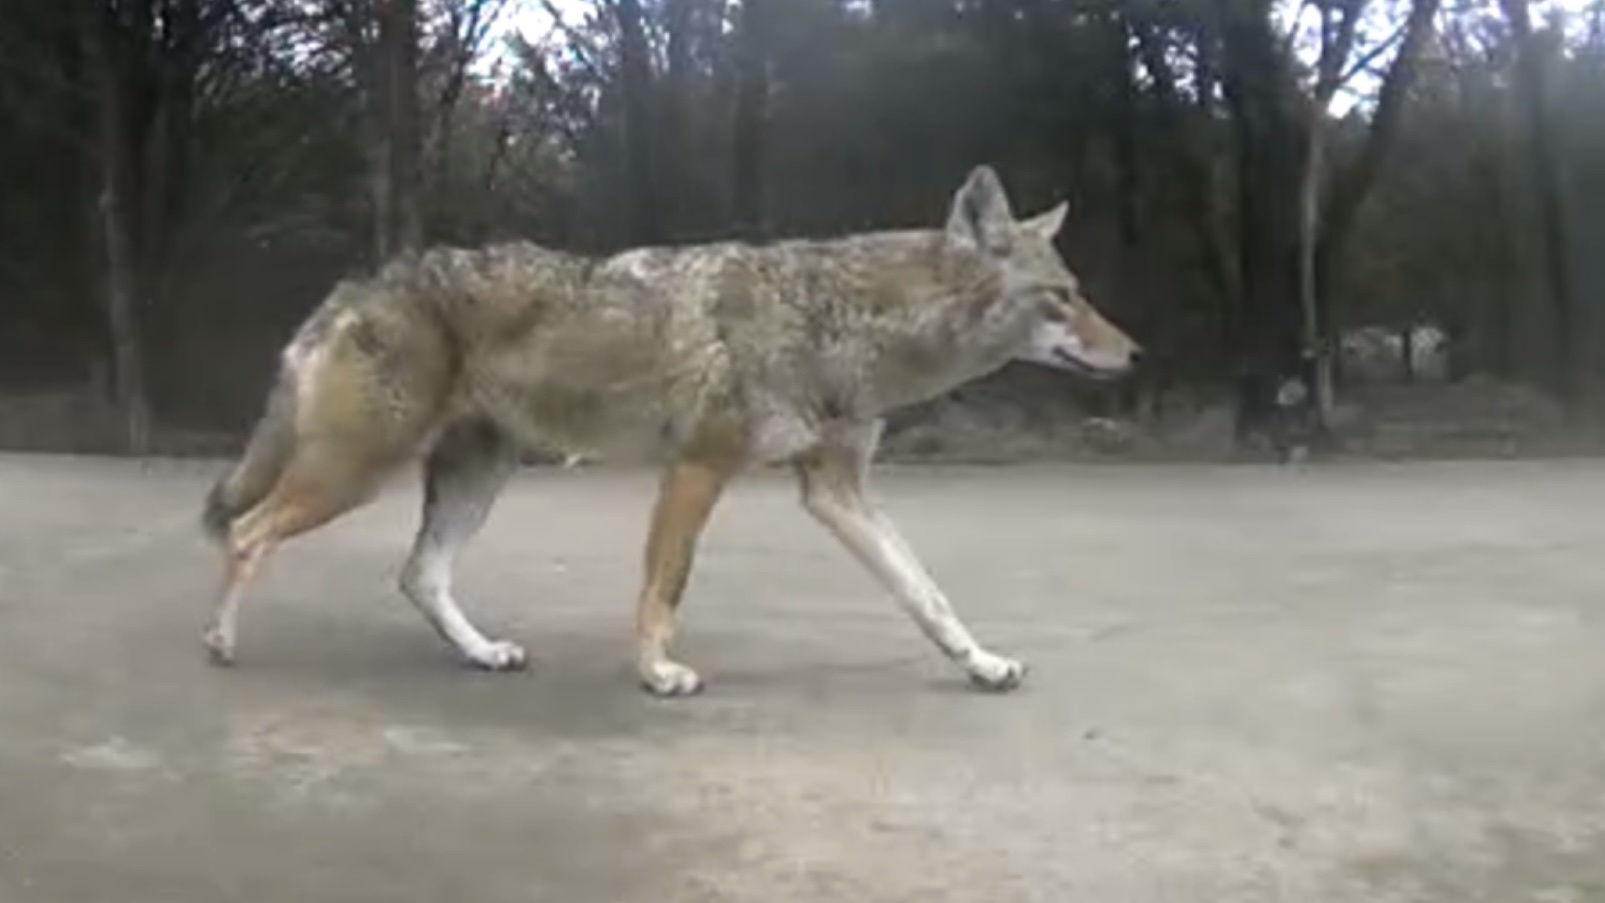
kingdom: Animalia
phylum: Chordata
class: Mammalia
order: Carnivora
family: Canidae
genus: Canis
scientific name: Canis latrans
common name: Coyote
